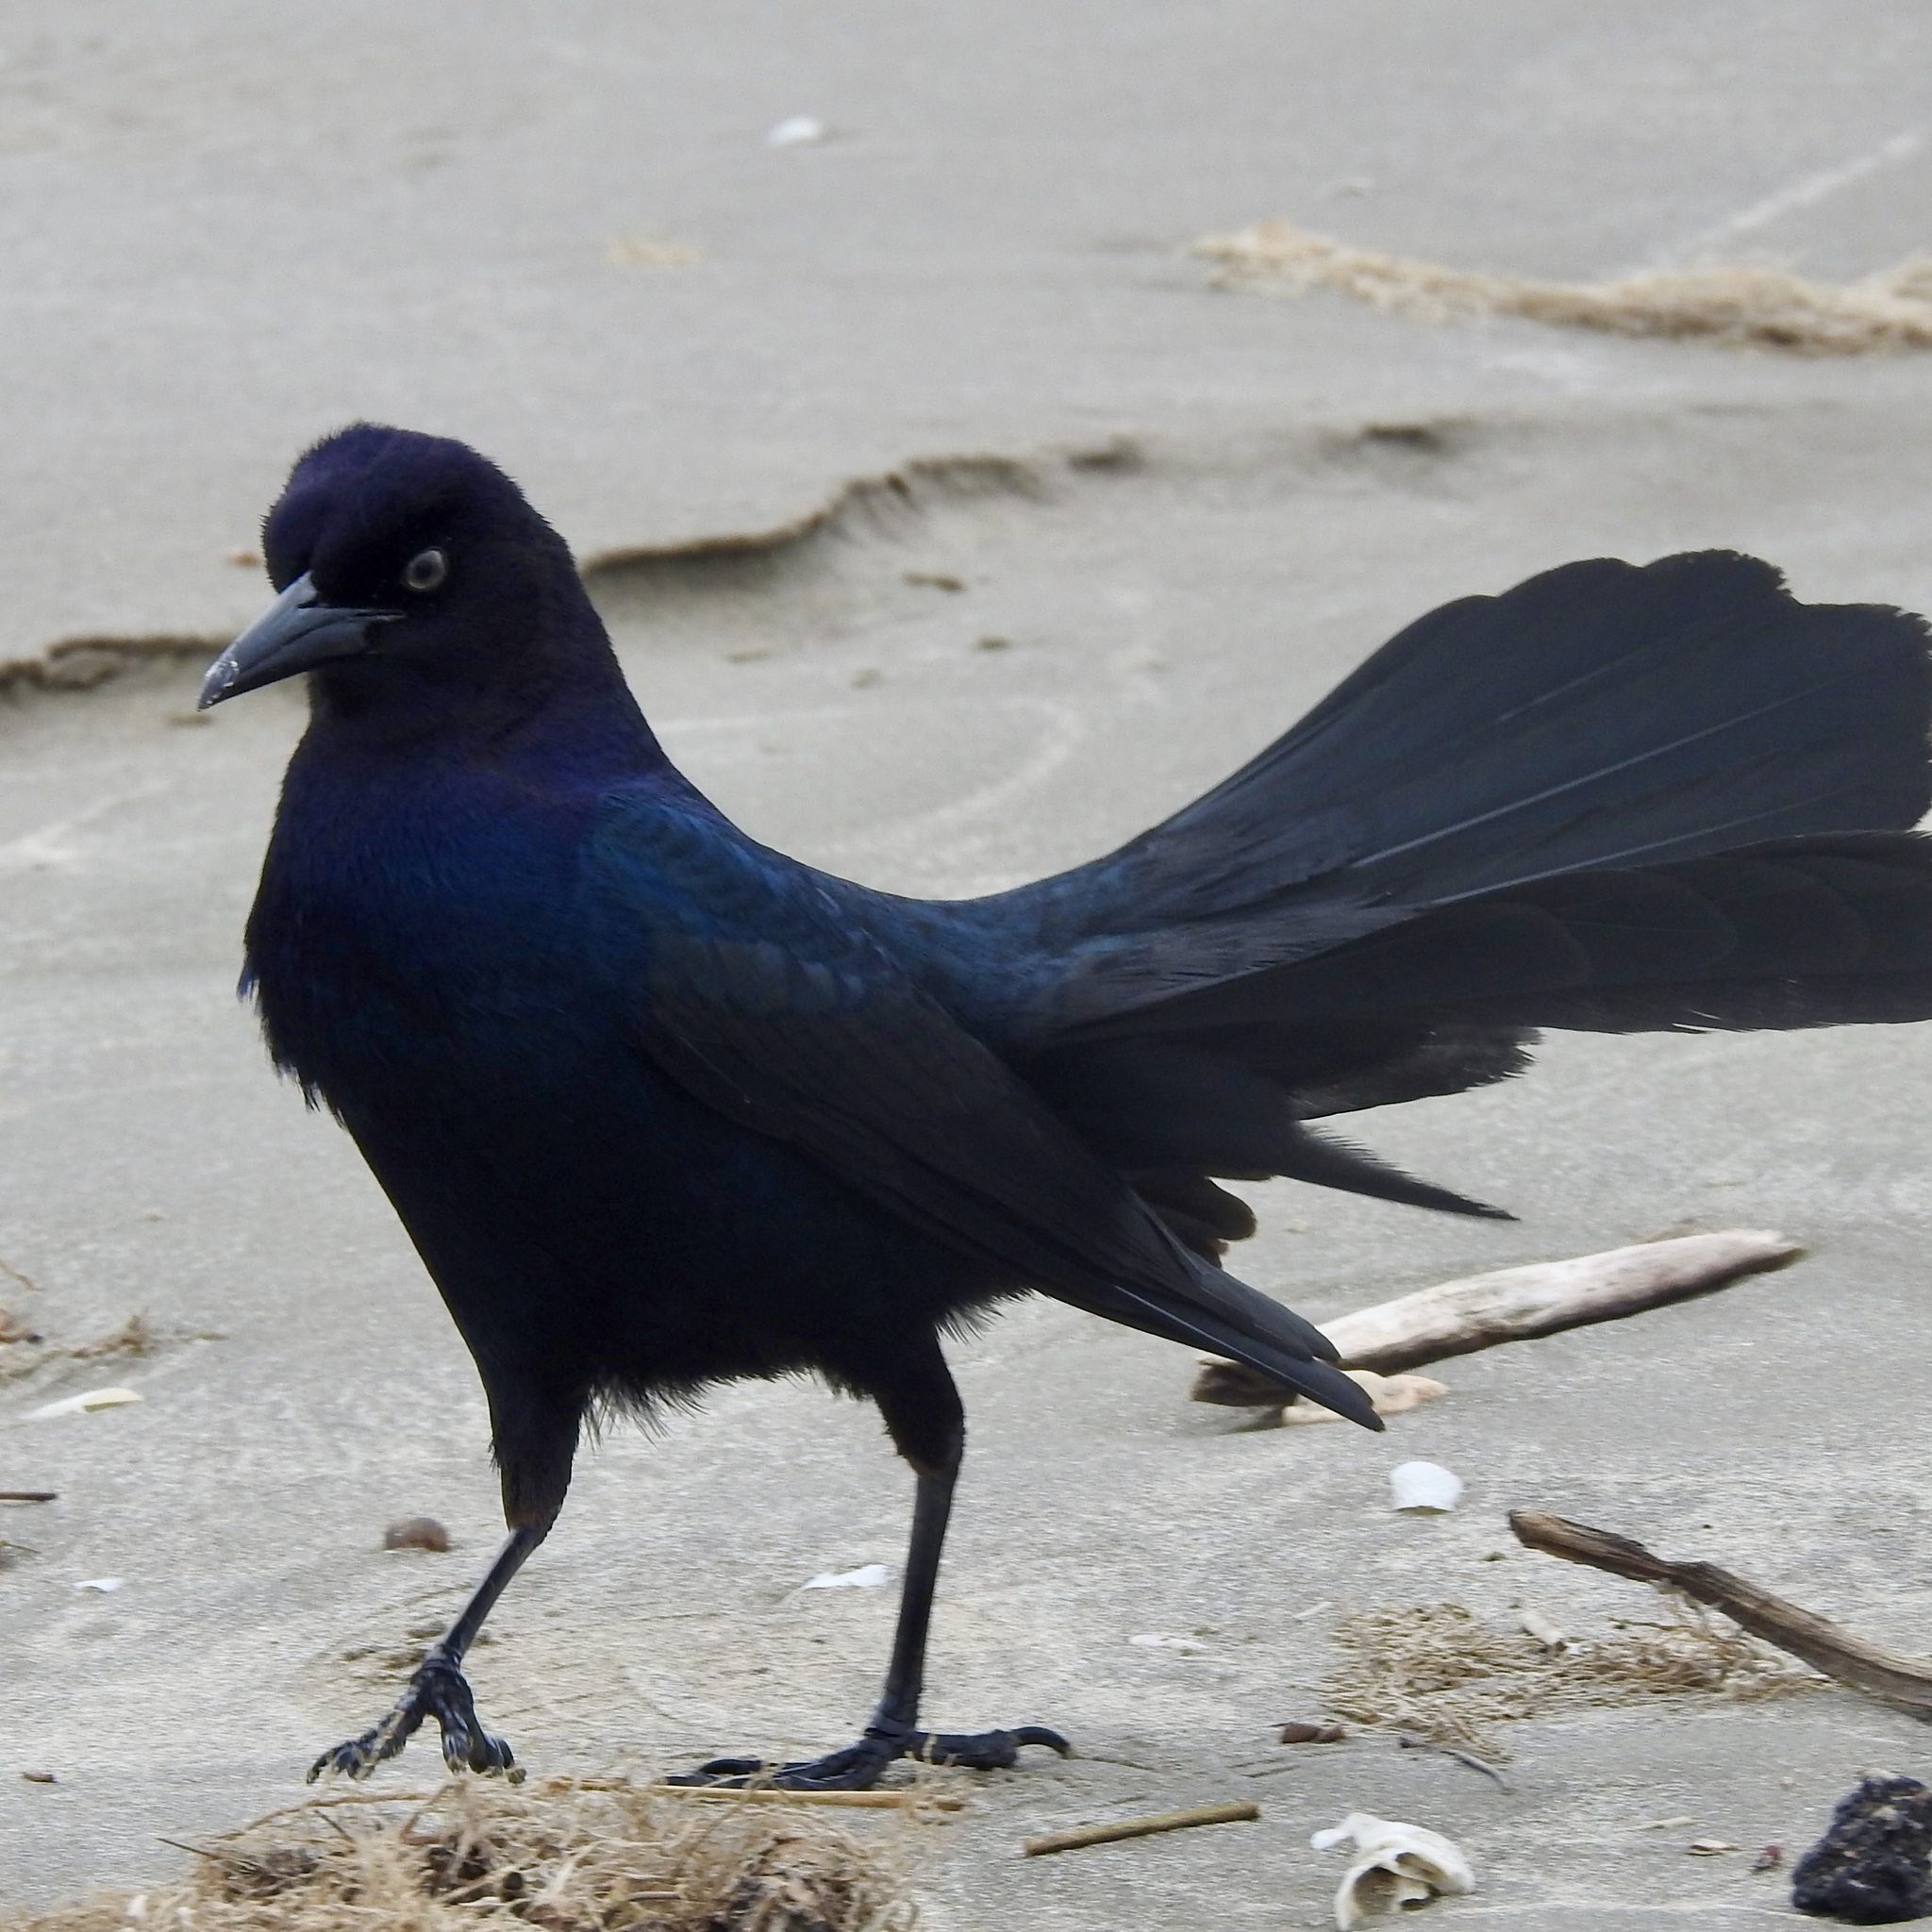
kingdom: Animalia
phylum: Chordata
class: Aves
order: Passeriformes
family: Icteridae
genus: Quiscalus
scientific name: Quiscalus major
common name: Boat-tailed grackle
